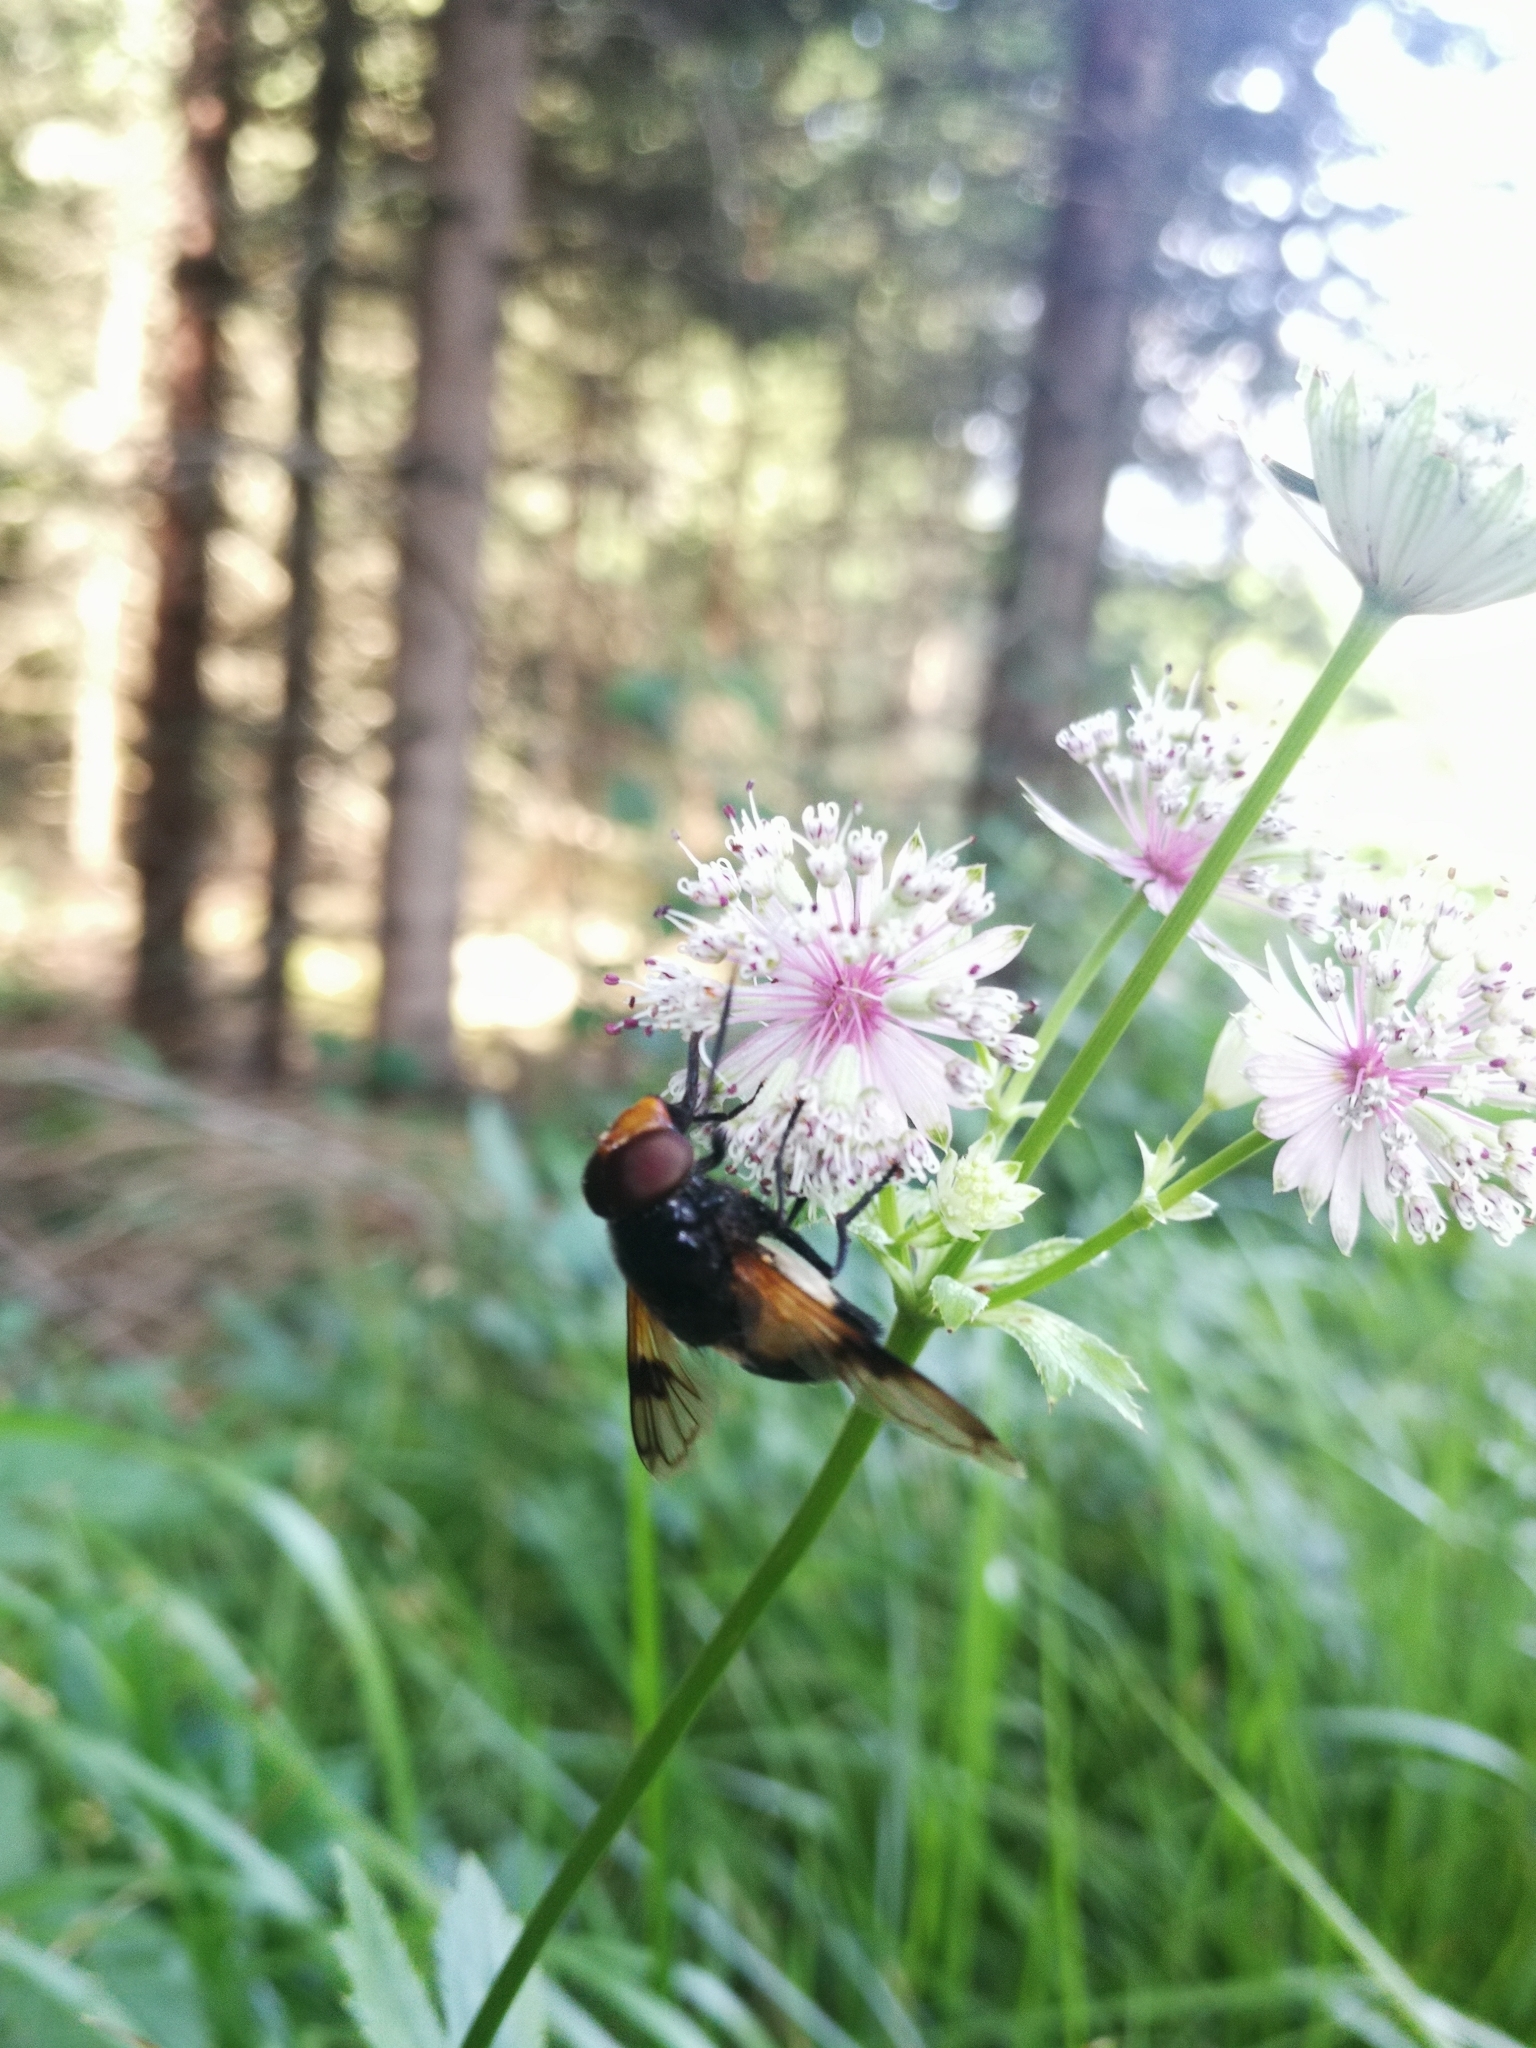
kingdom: Animalia
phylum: Arthropoda
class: Insecta
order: Diptera
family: Syrphidae
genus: Volucella
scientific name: Volucella pellucens
